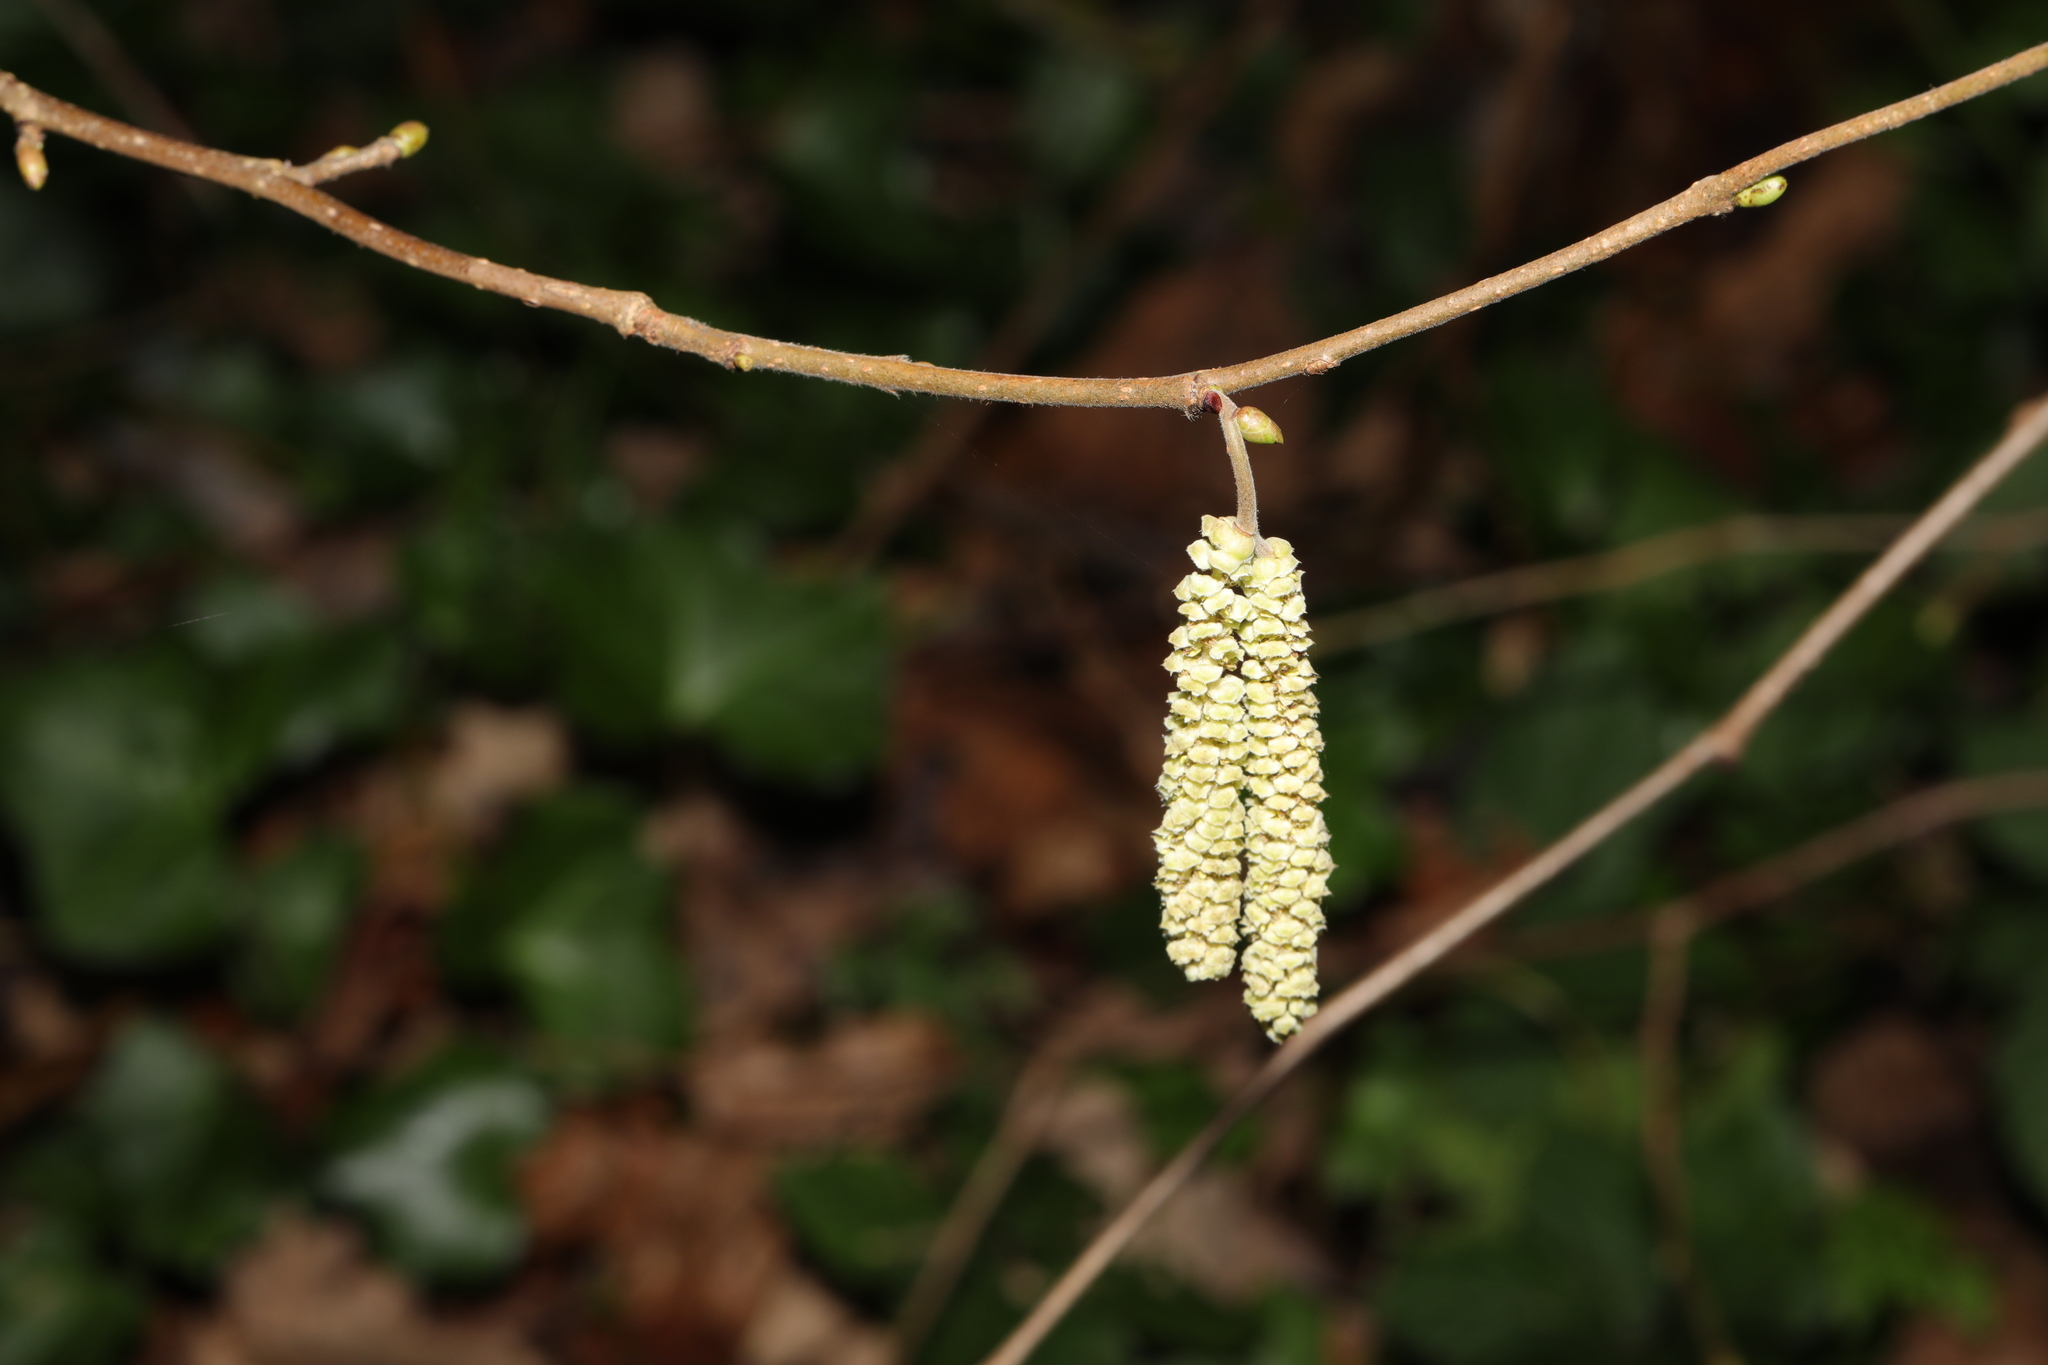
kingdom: Plantae
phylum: Tracheophyta
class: Magnoliopsida
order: Fagales
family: Betulaceae
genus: Corylus
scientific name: Corylus avellana
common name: European hazel
